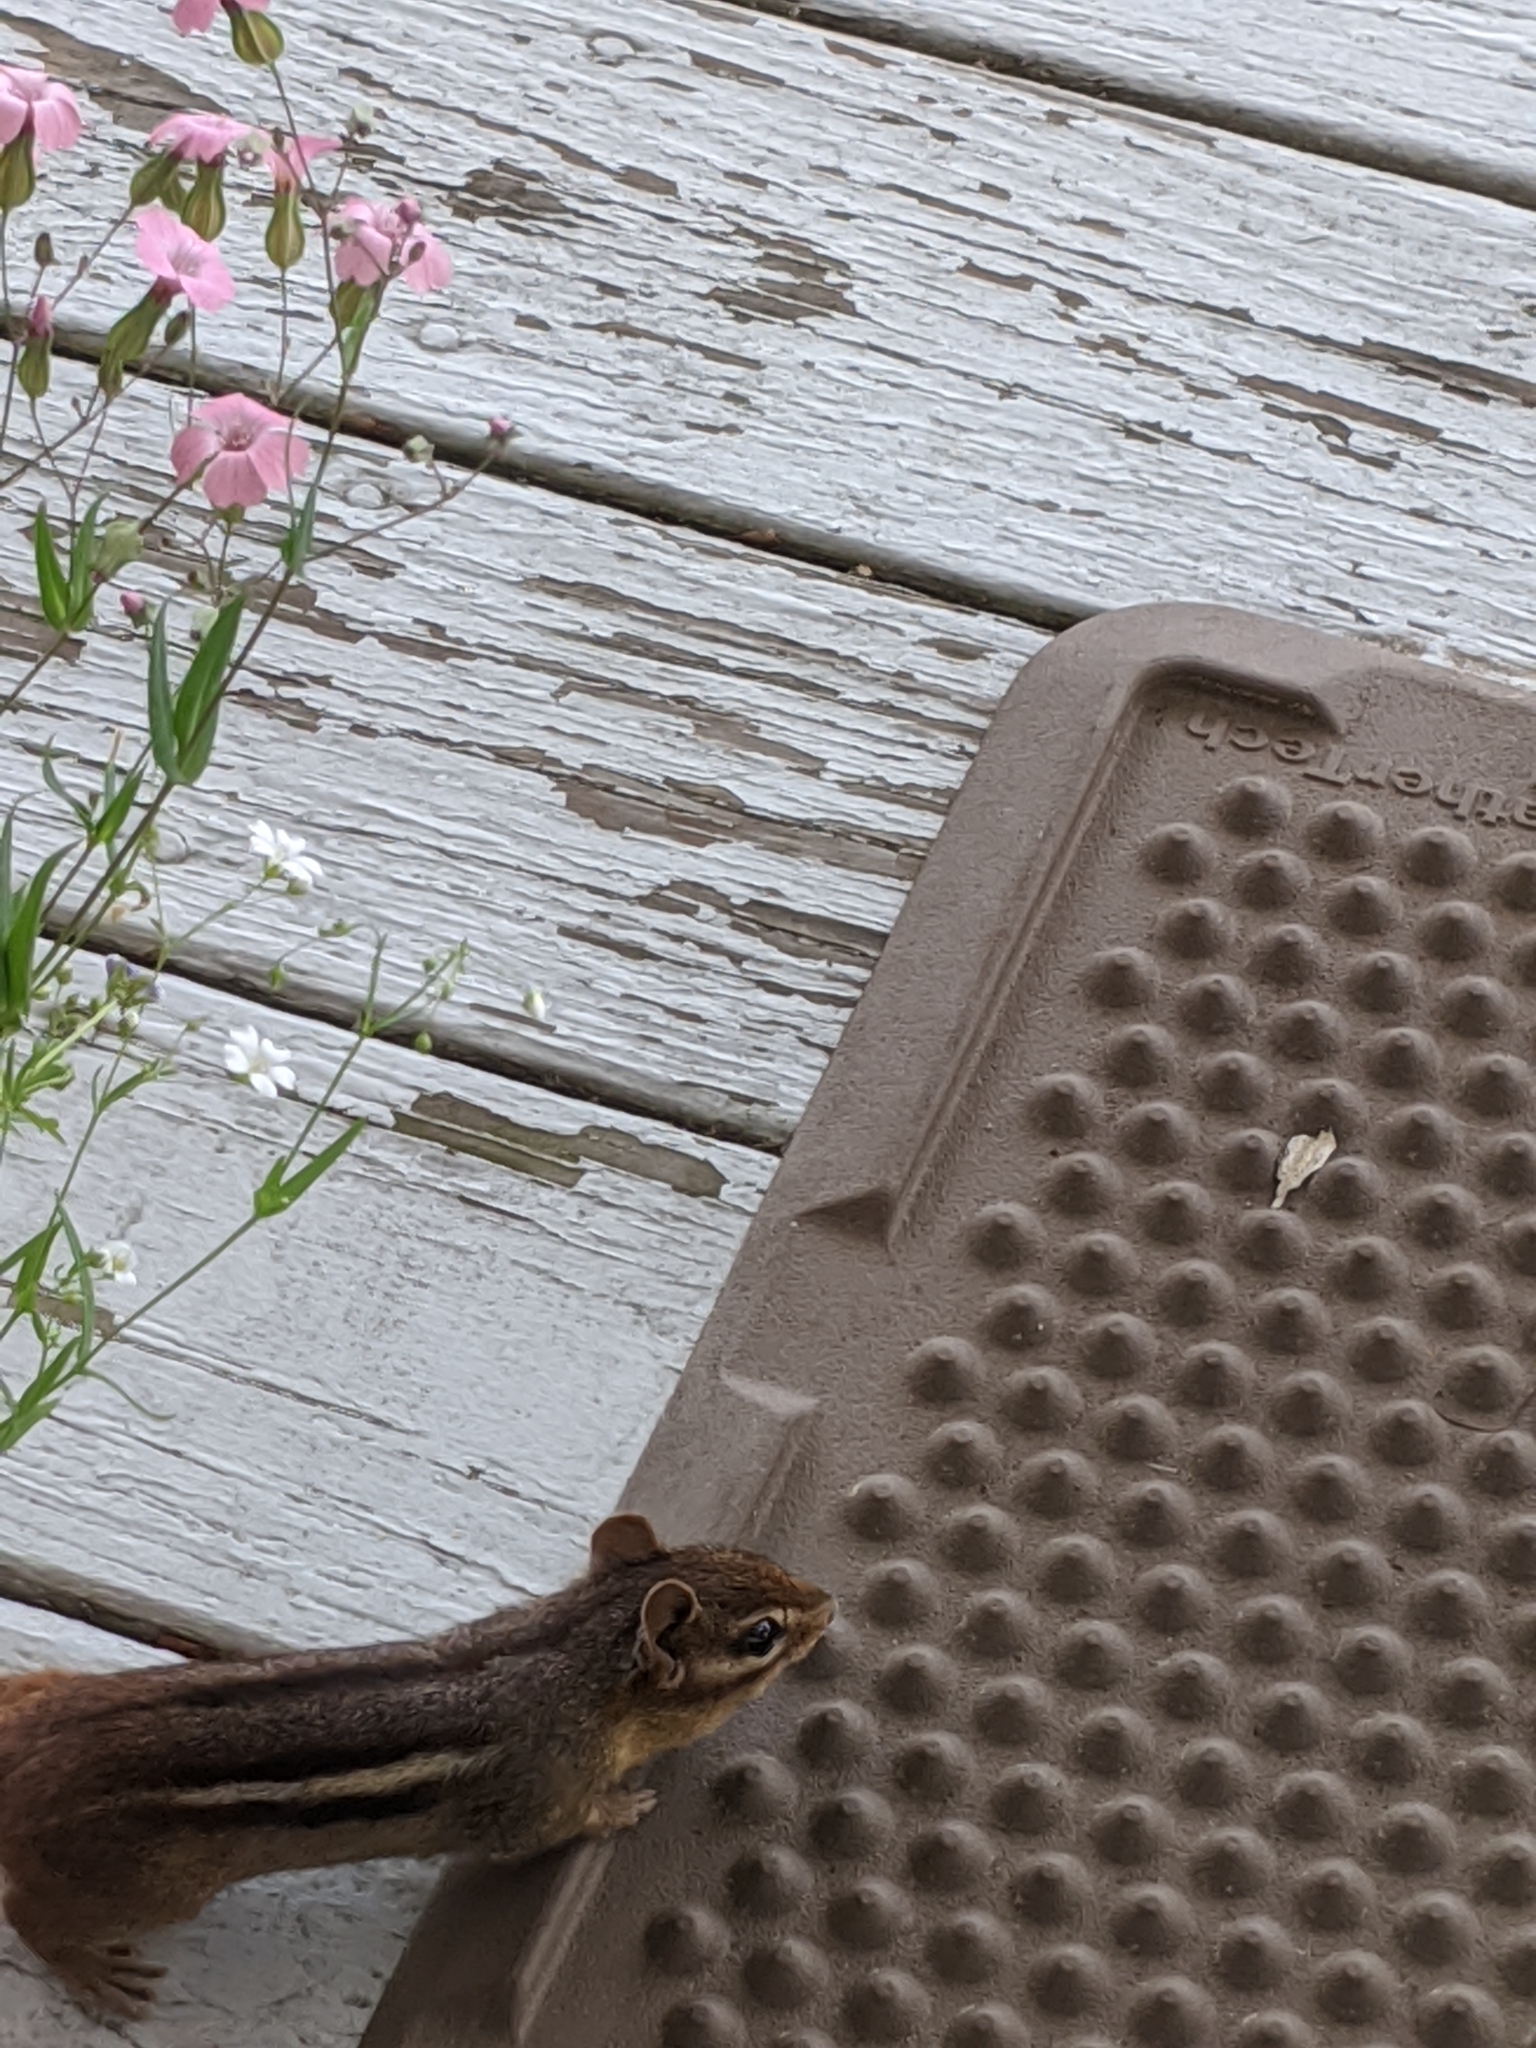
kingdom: Animalia
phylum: Chordata
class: Mammalia
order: Rodentia
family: Sciuridae
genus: Tamias
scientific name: Tamias striatus
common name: Eastern chipmunk
